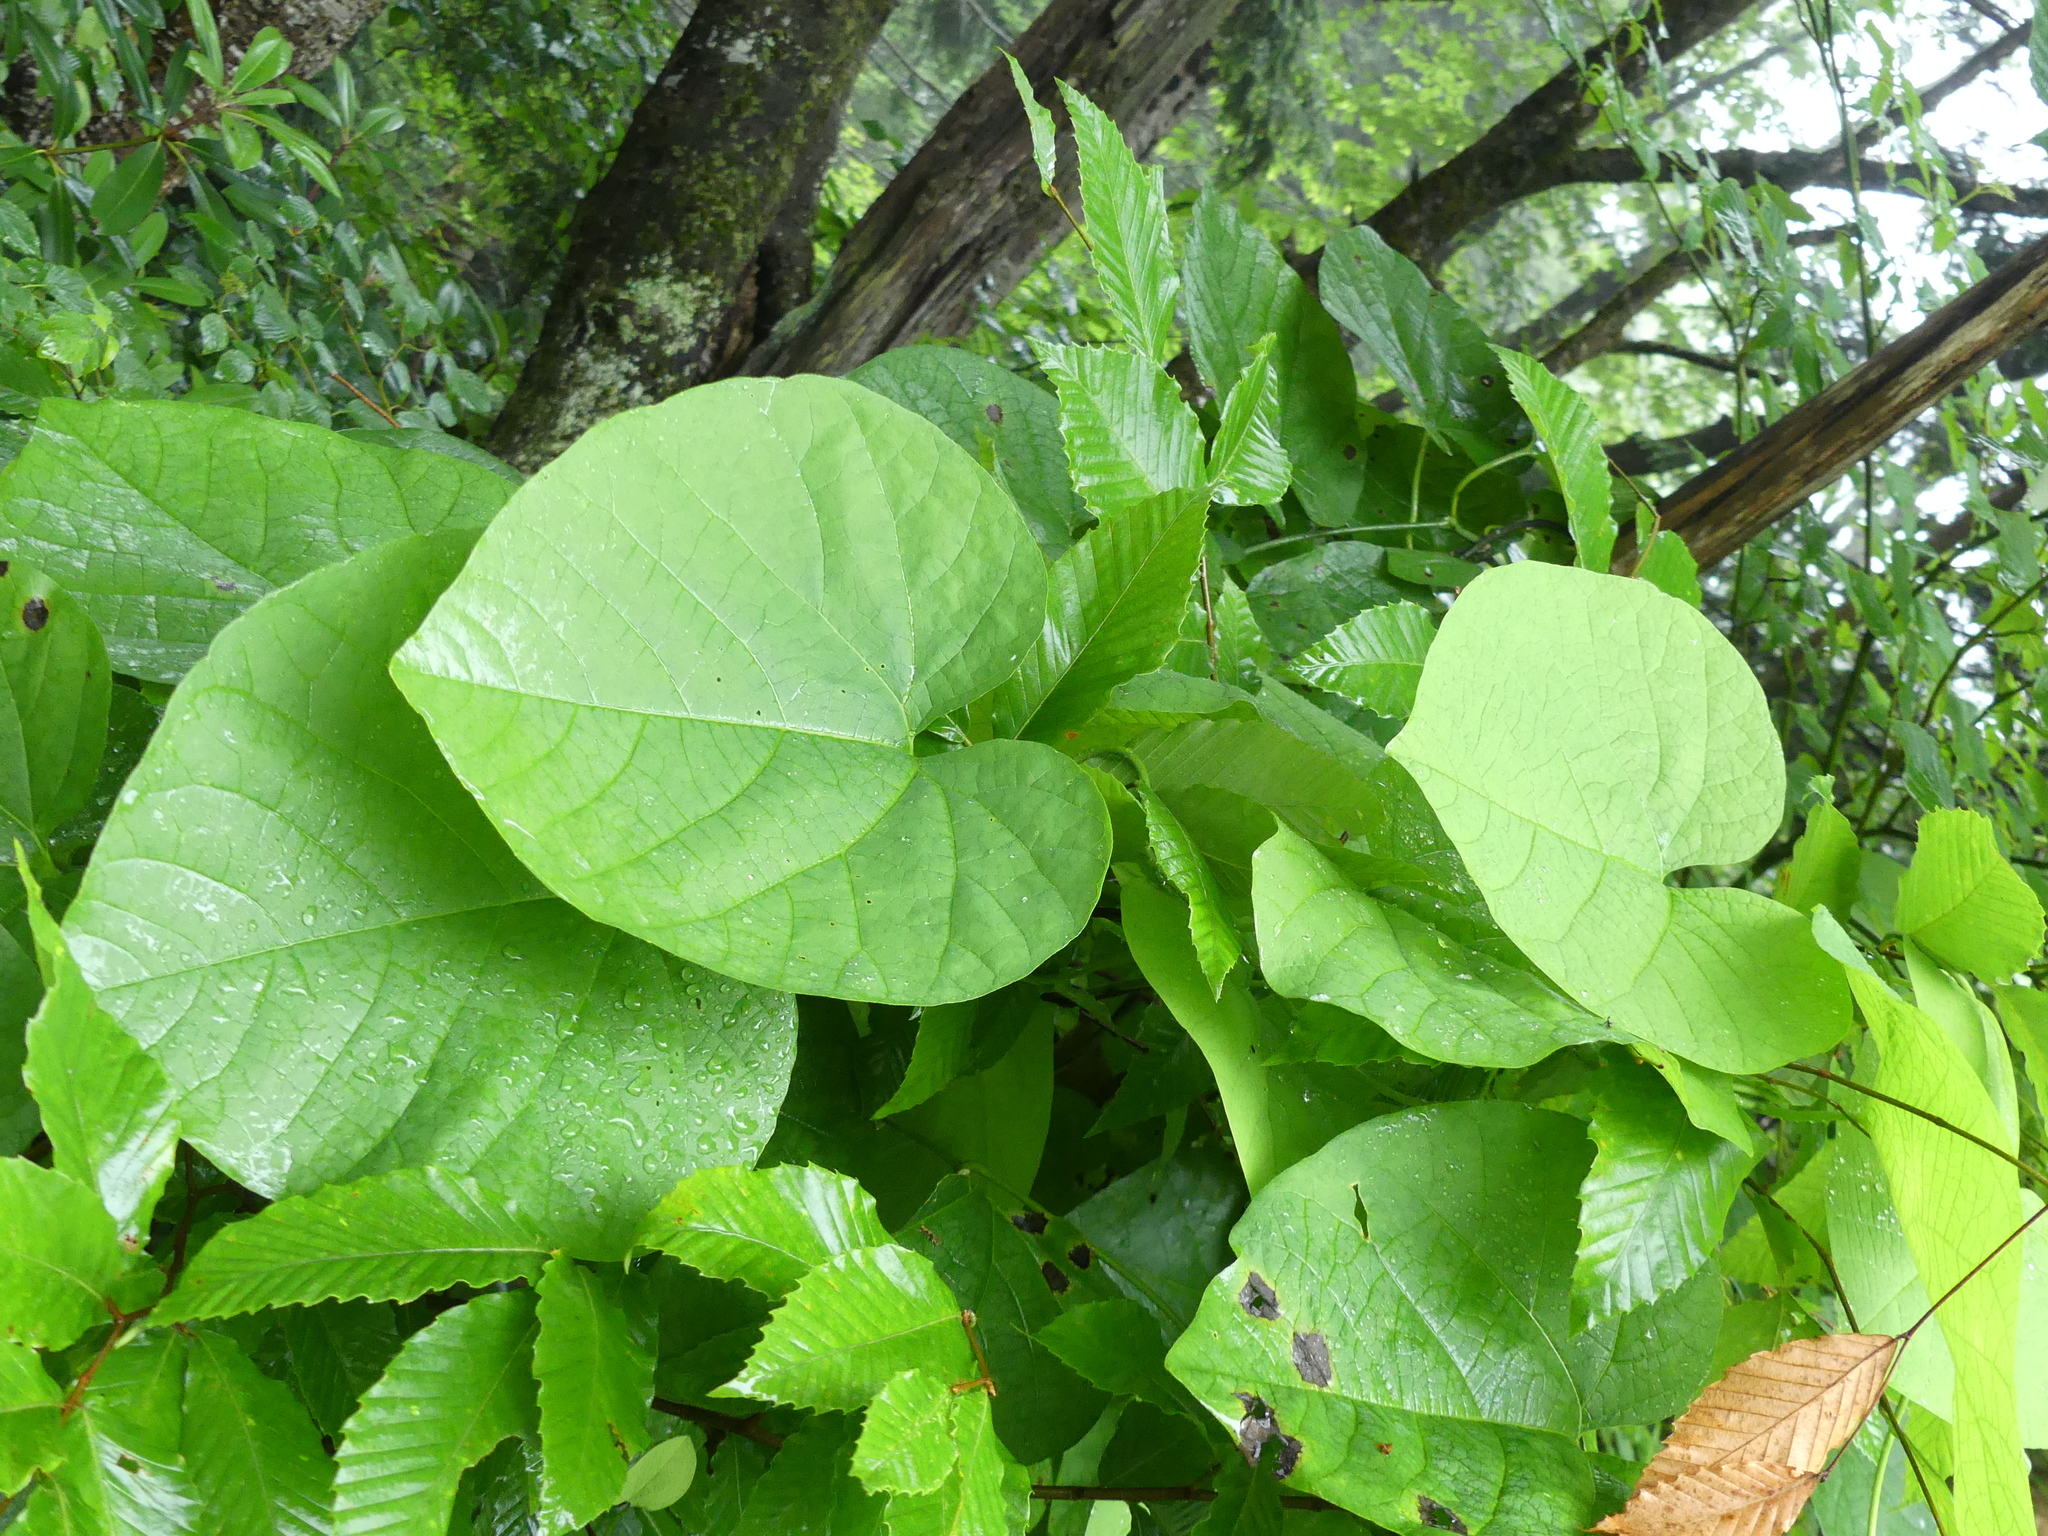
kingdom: Plantae
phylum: Tracheophyta
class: Magnoliopsida
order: Piperales
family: Aristolochiaceae
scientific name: Aristolochiaceae
